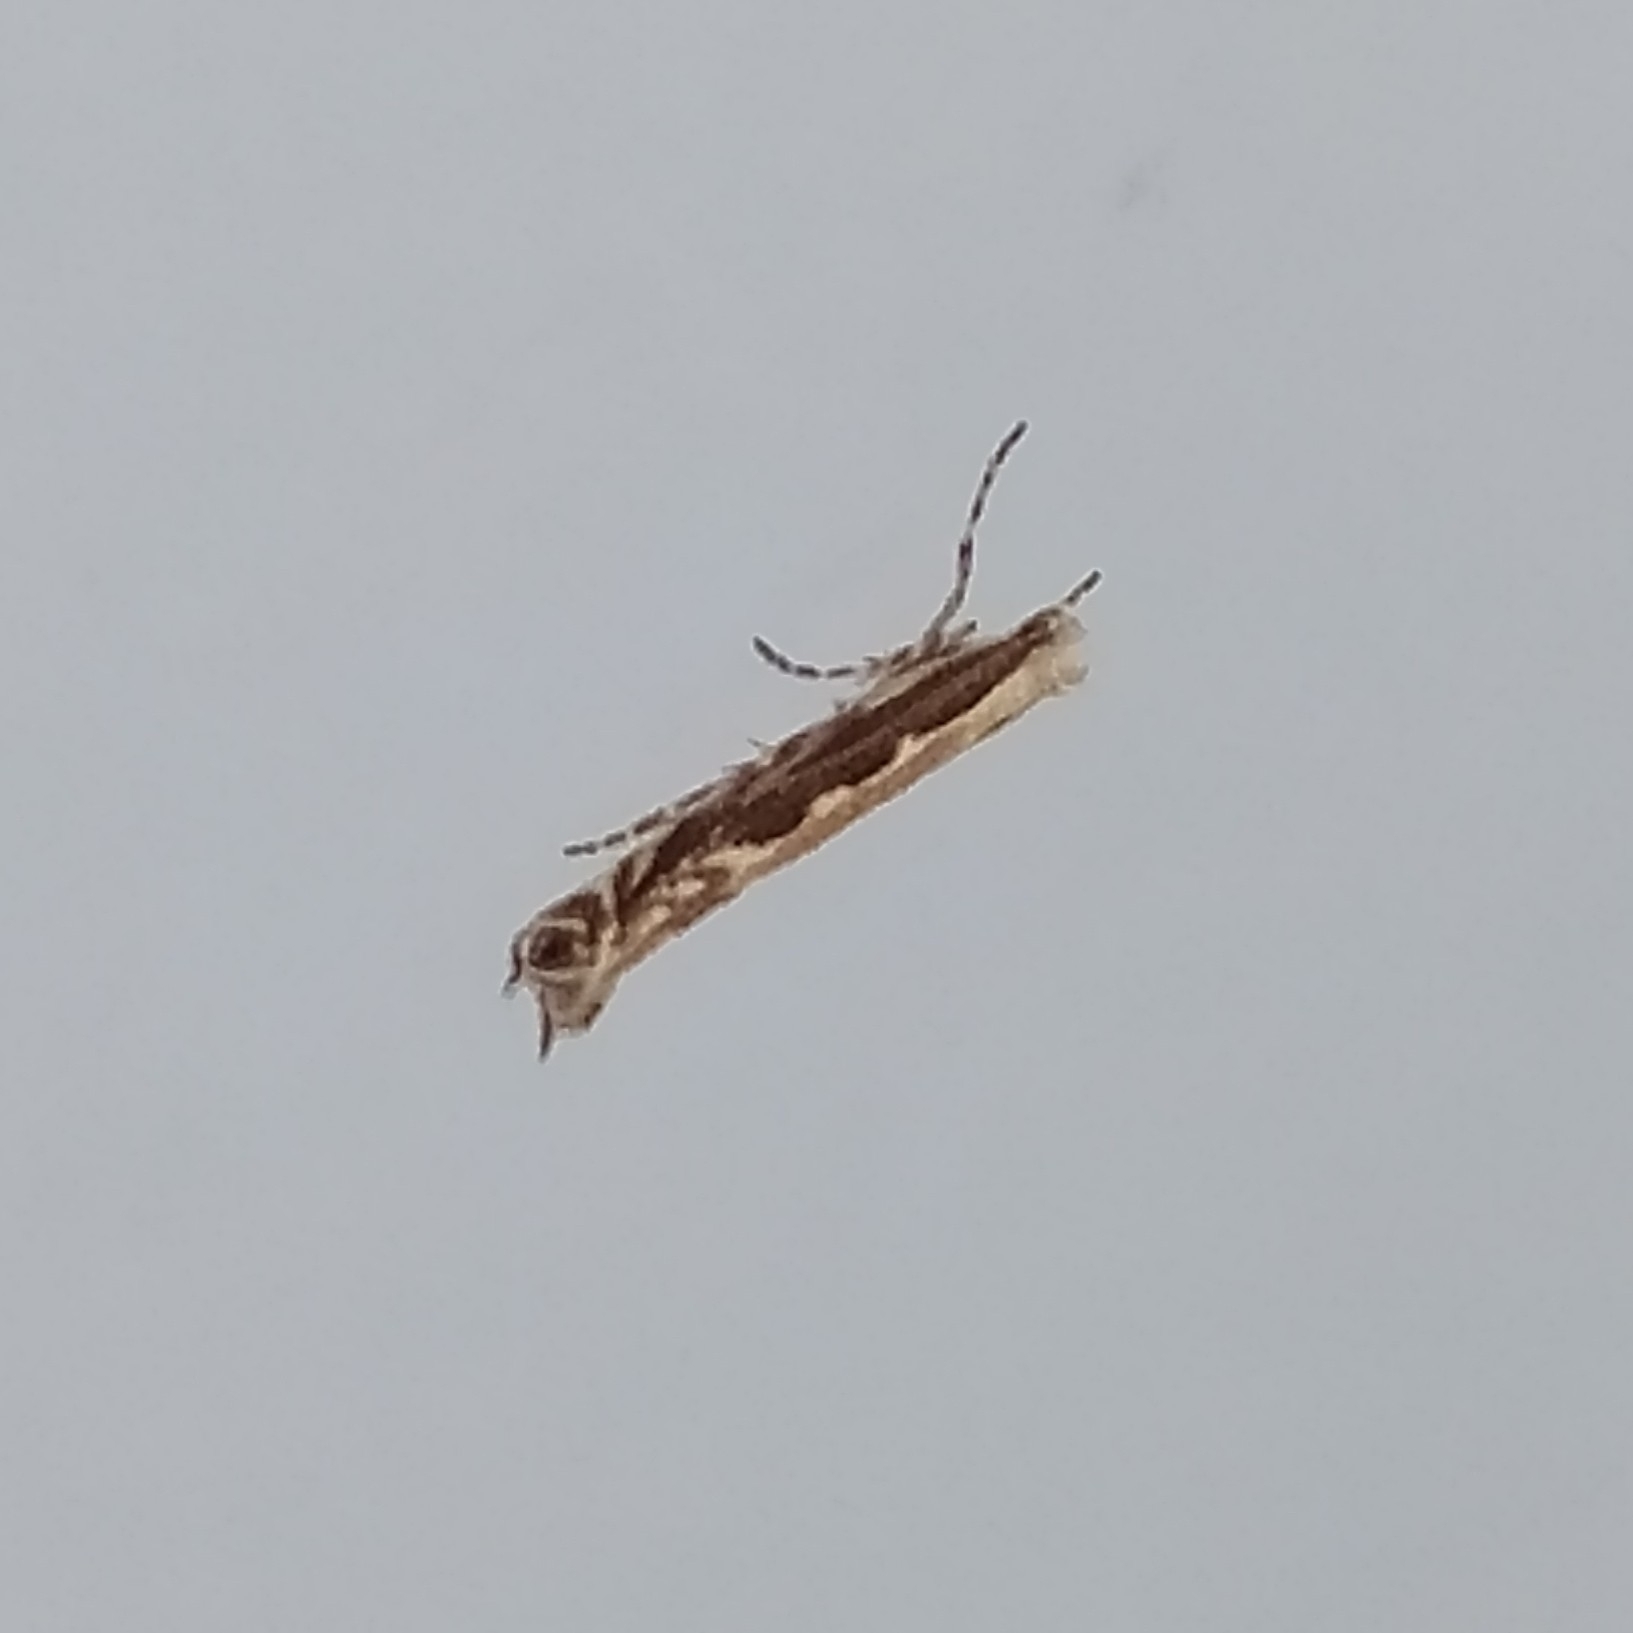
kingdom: Animalia
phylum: Arthropoda
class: Insecta
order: Lepidoptera
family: Gracillariidae
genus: Micrurapteryx
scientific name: Micrurapteryx gradatella
